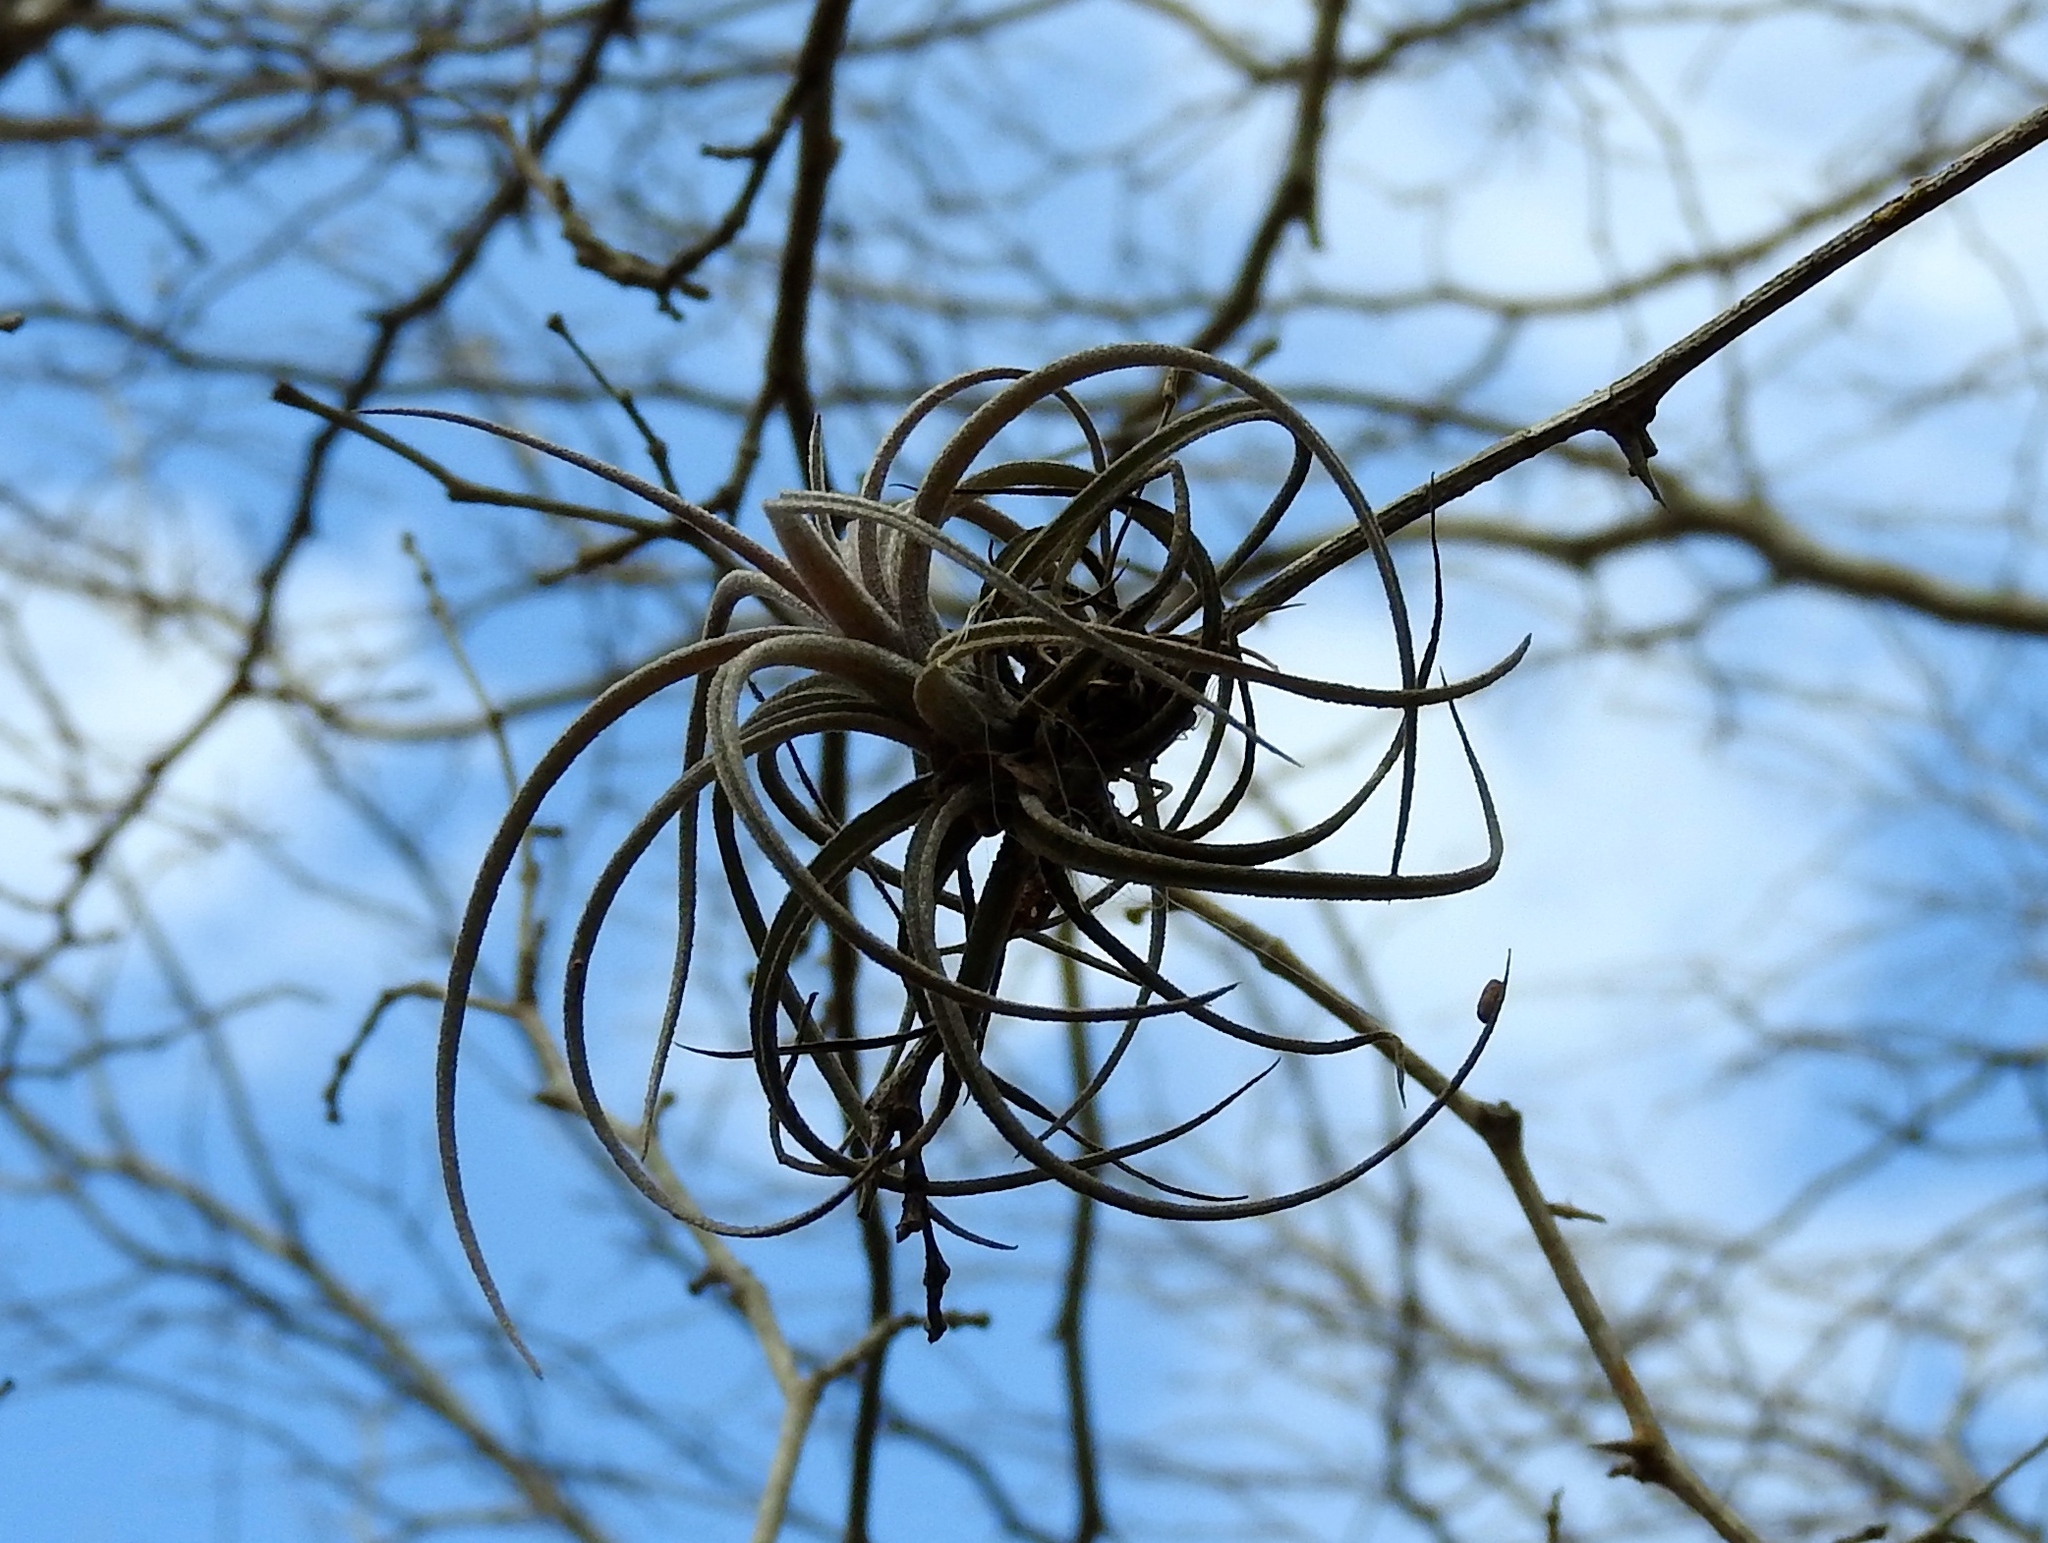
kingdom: Plantae
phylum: Tracheophyta
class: Liliopsida
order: Poales
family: Bromeliaceae
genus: Tillandsia
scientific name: Tillandsia exserta
